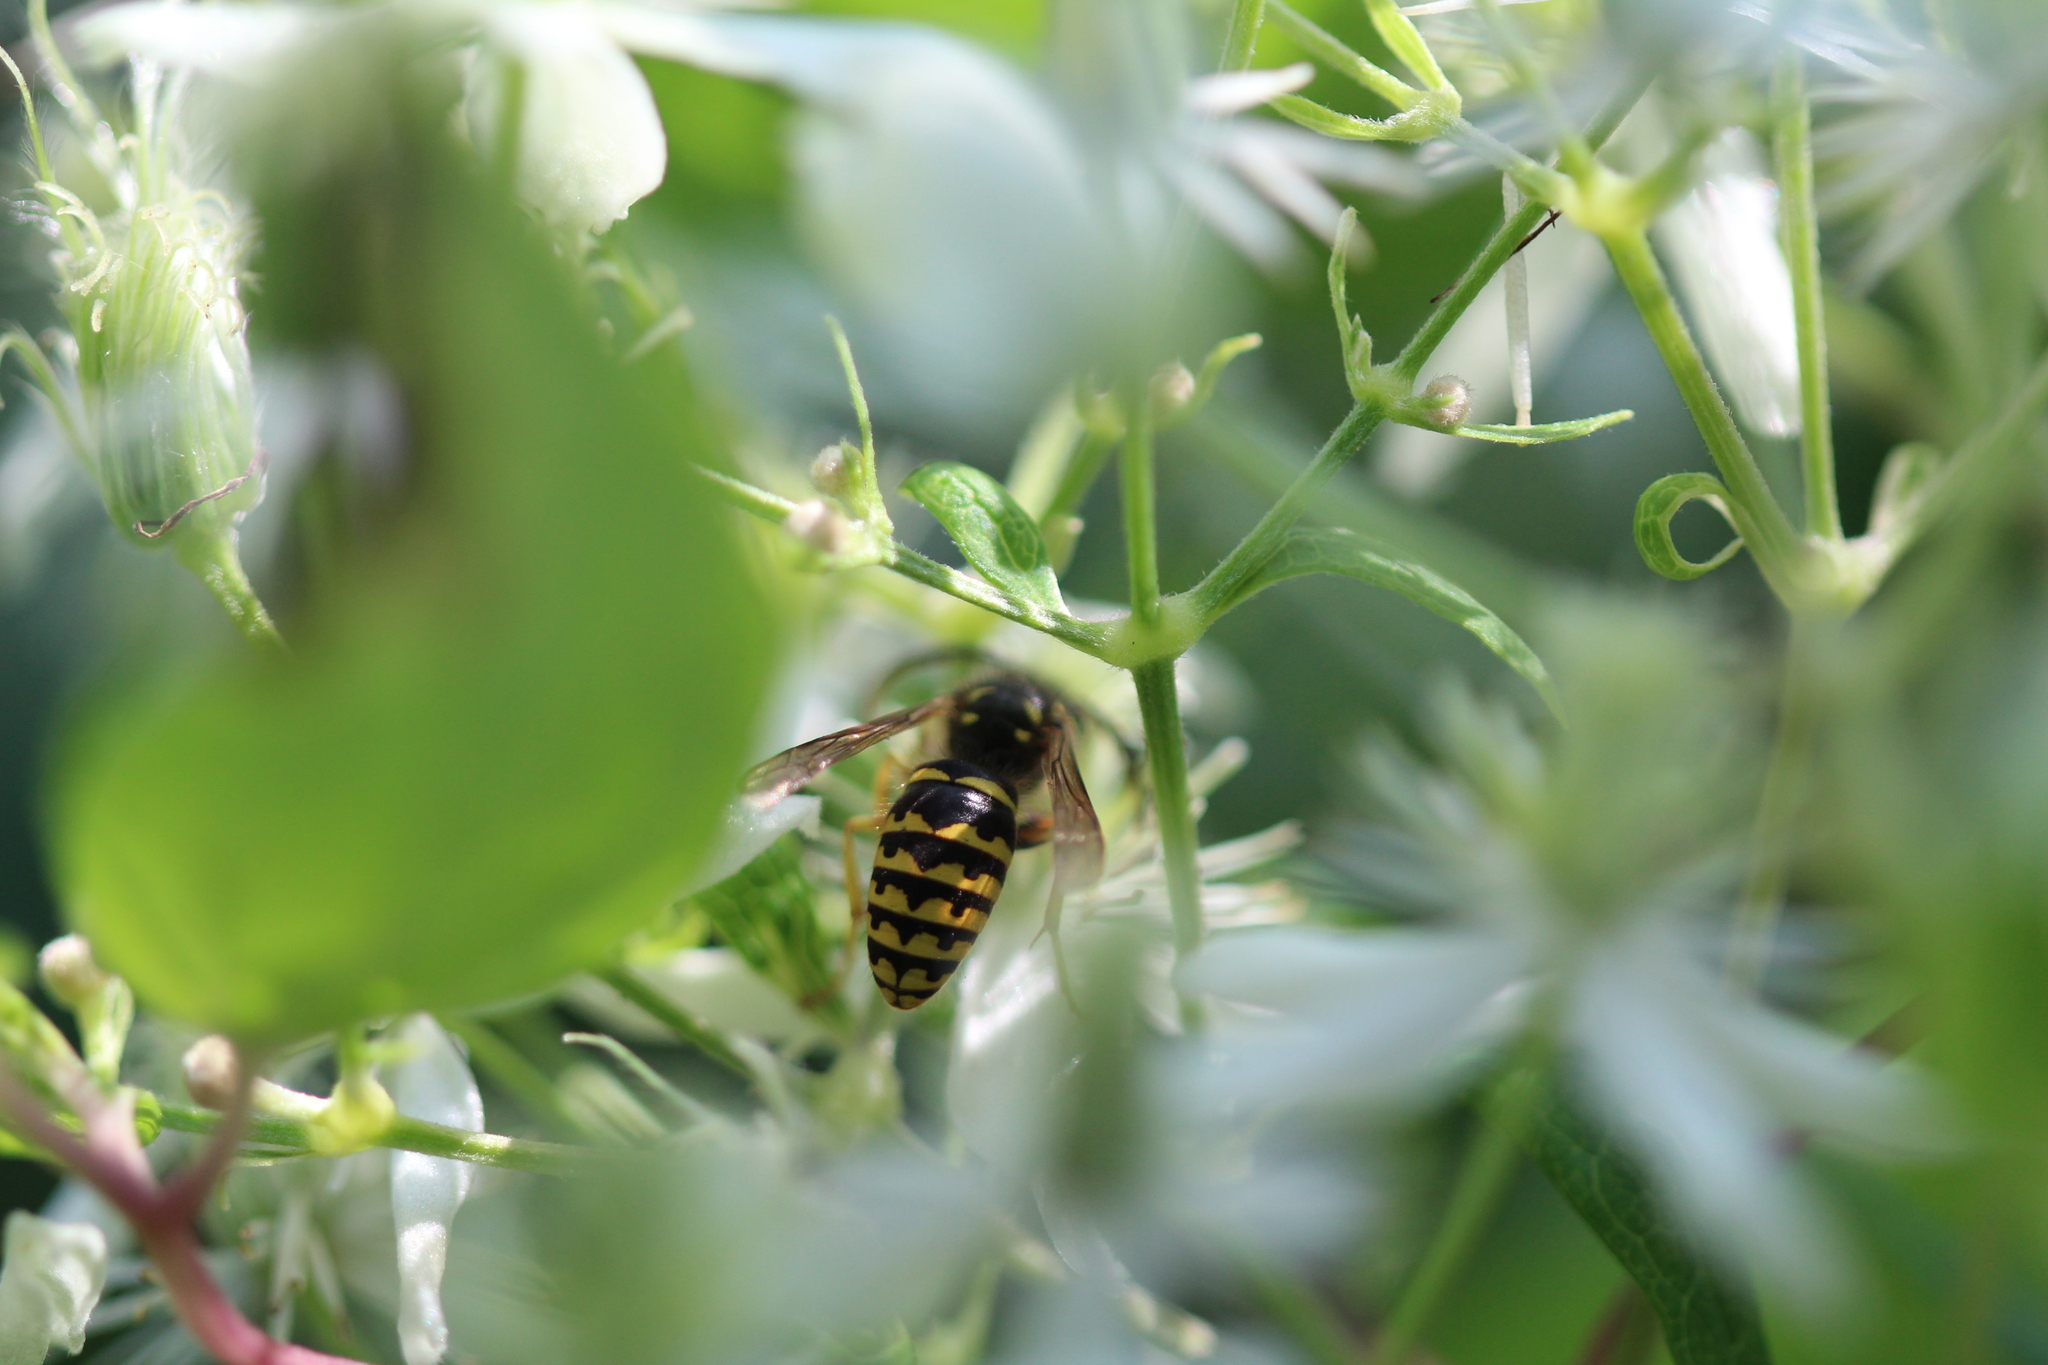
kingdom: Animalia
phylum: Arthropoda
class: Insecta
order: Hymenoptera
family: Vespidae
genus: Dolichovespula
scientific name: Dolichovespula arenaria
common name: Aerial yellowjacket
